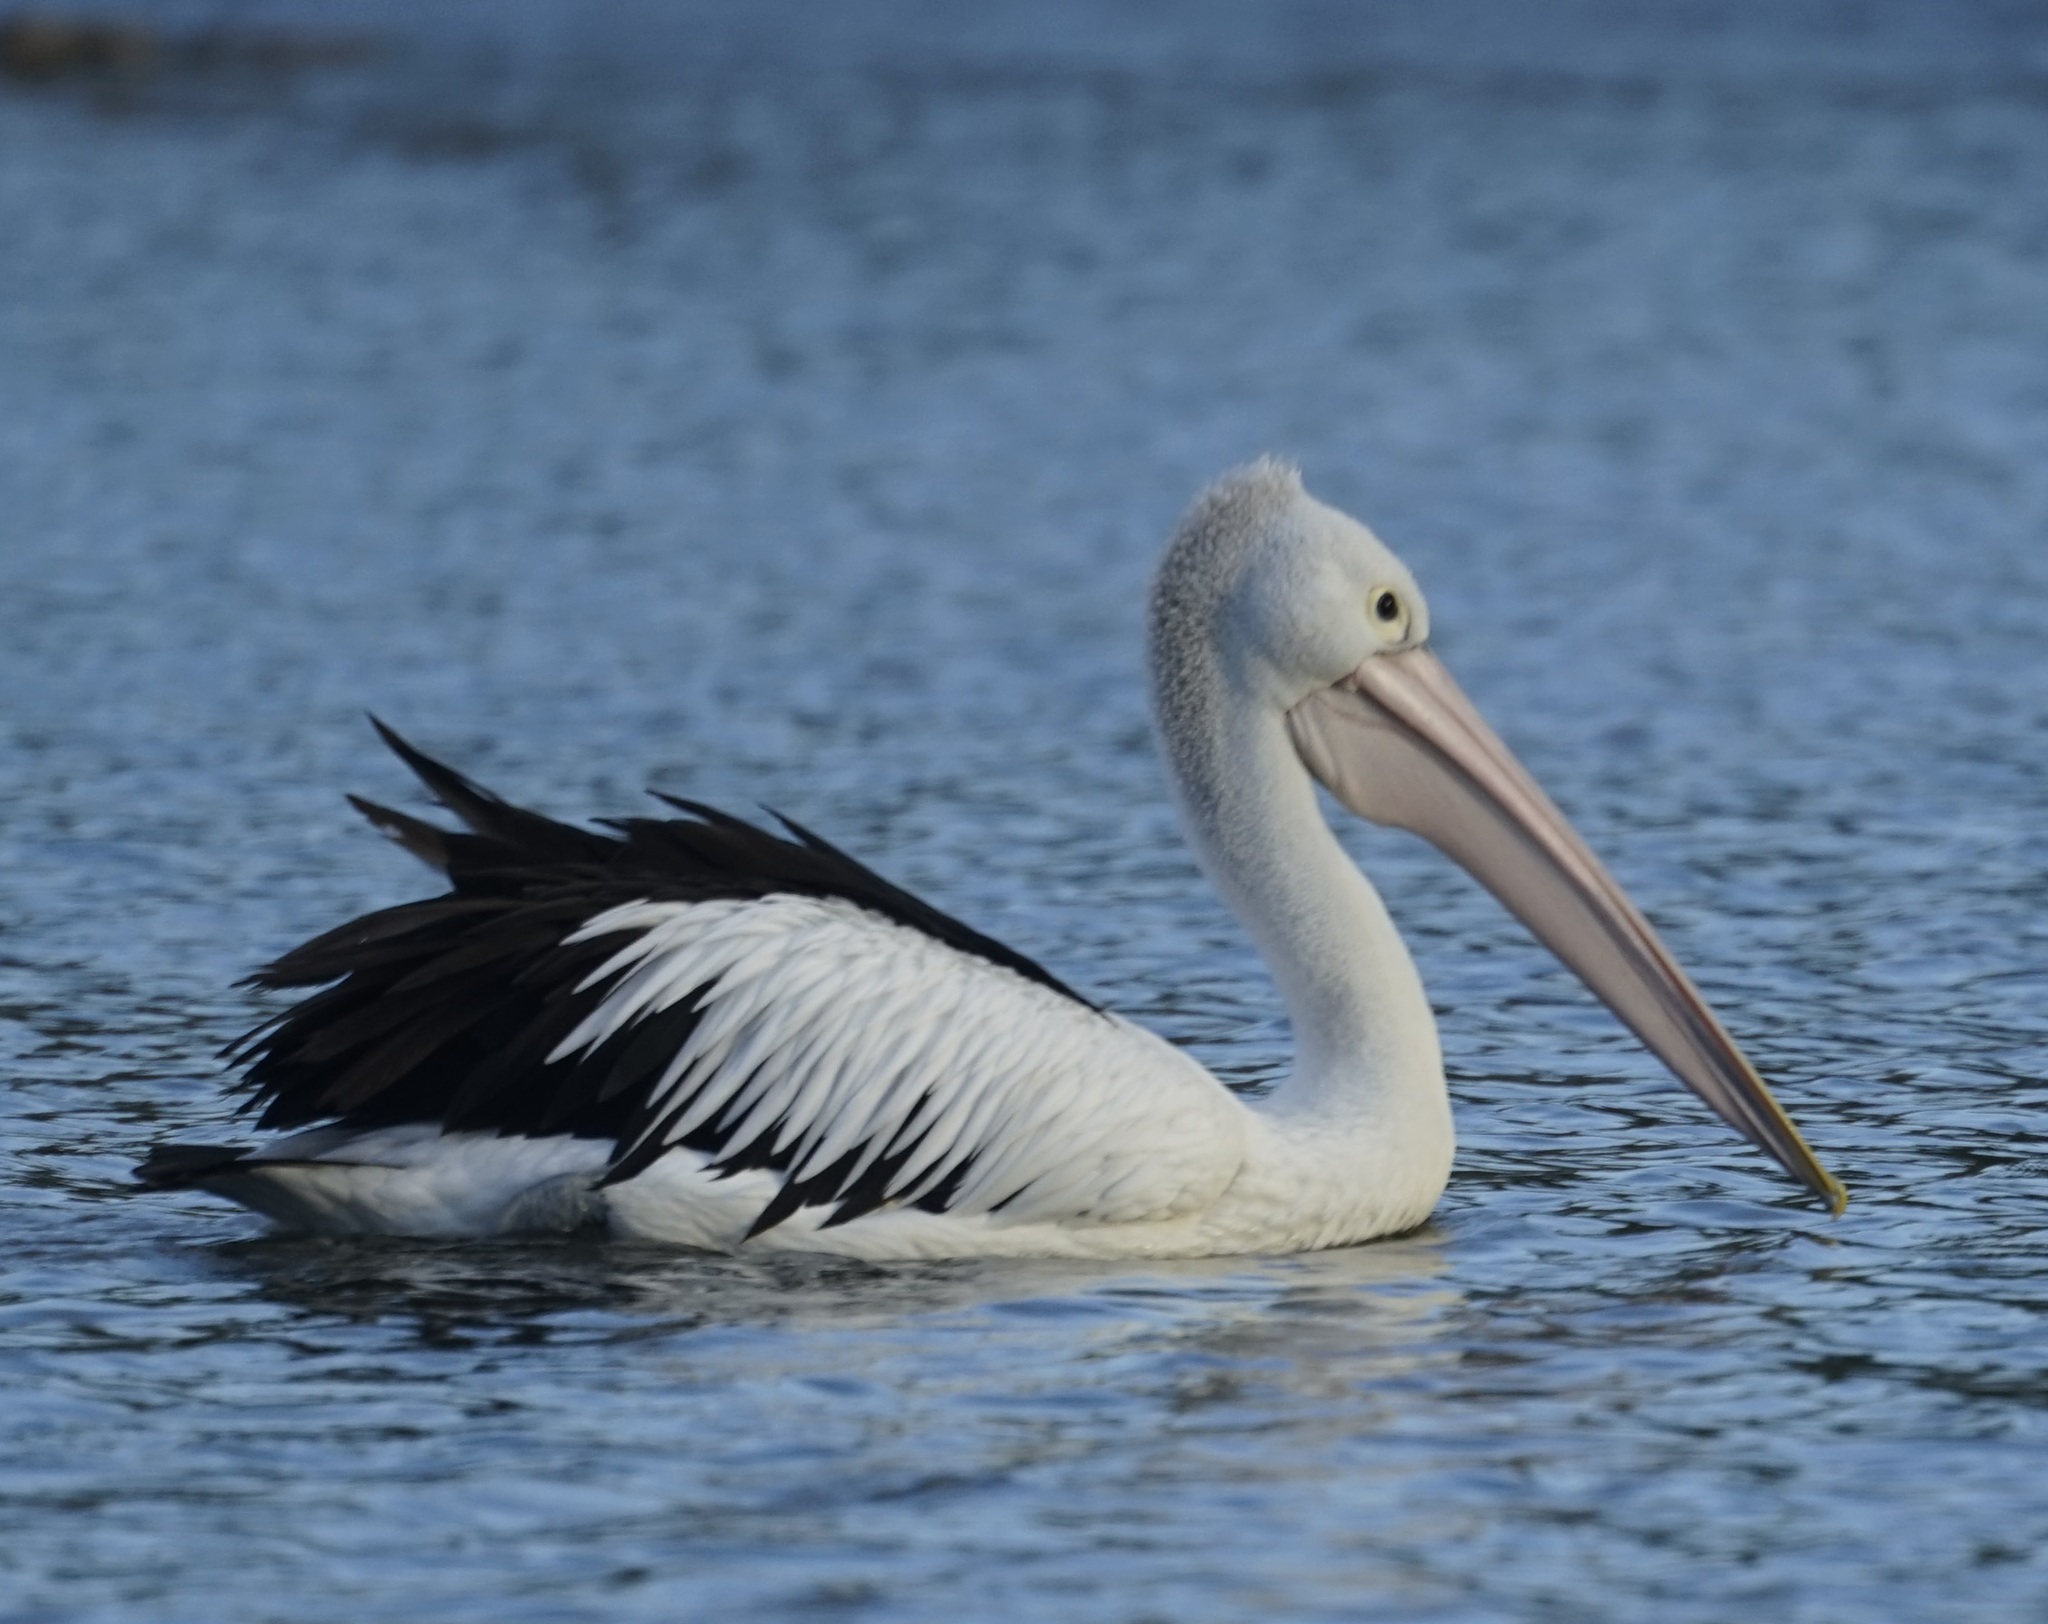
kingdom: Animalia
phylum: Chordata
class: Aves
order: Pelecaniformes
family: Pelecanidae
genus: Pelecanus
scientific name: Pelecanus conspicillatus
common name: Australian pelican
